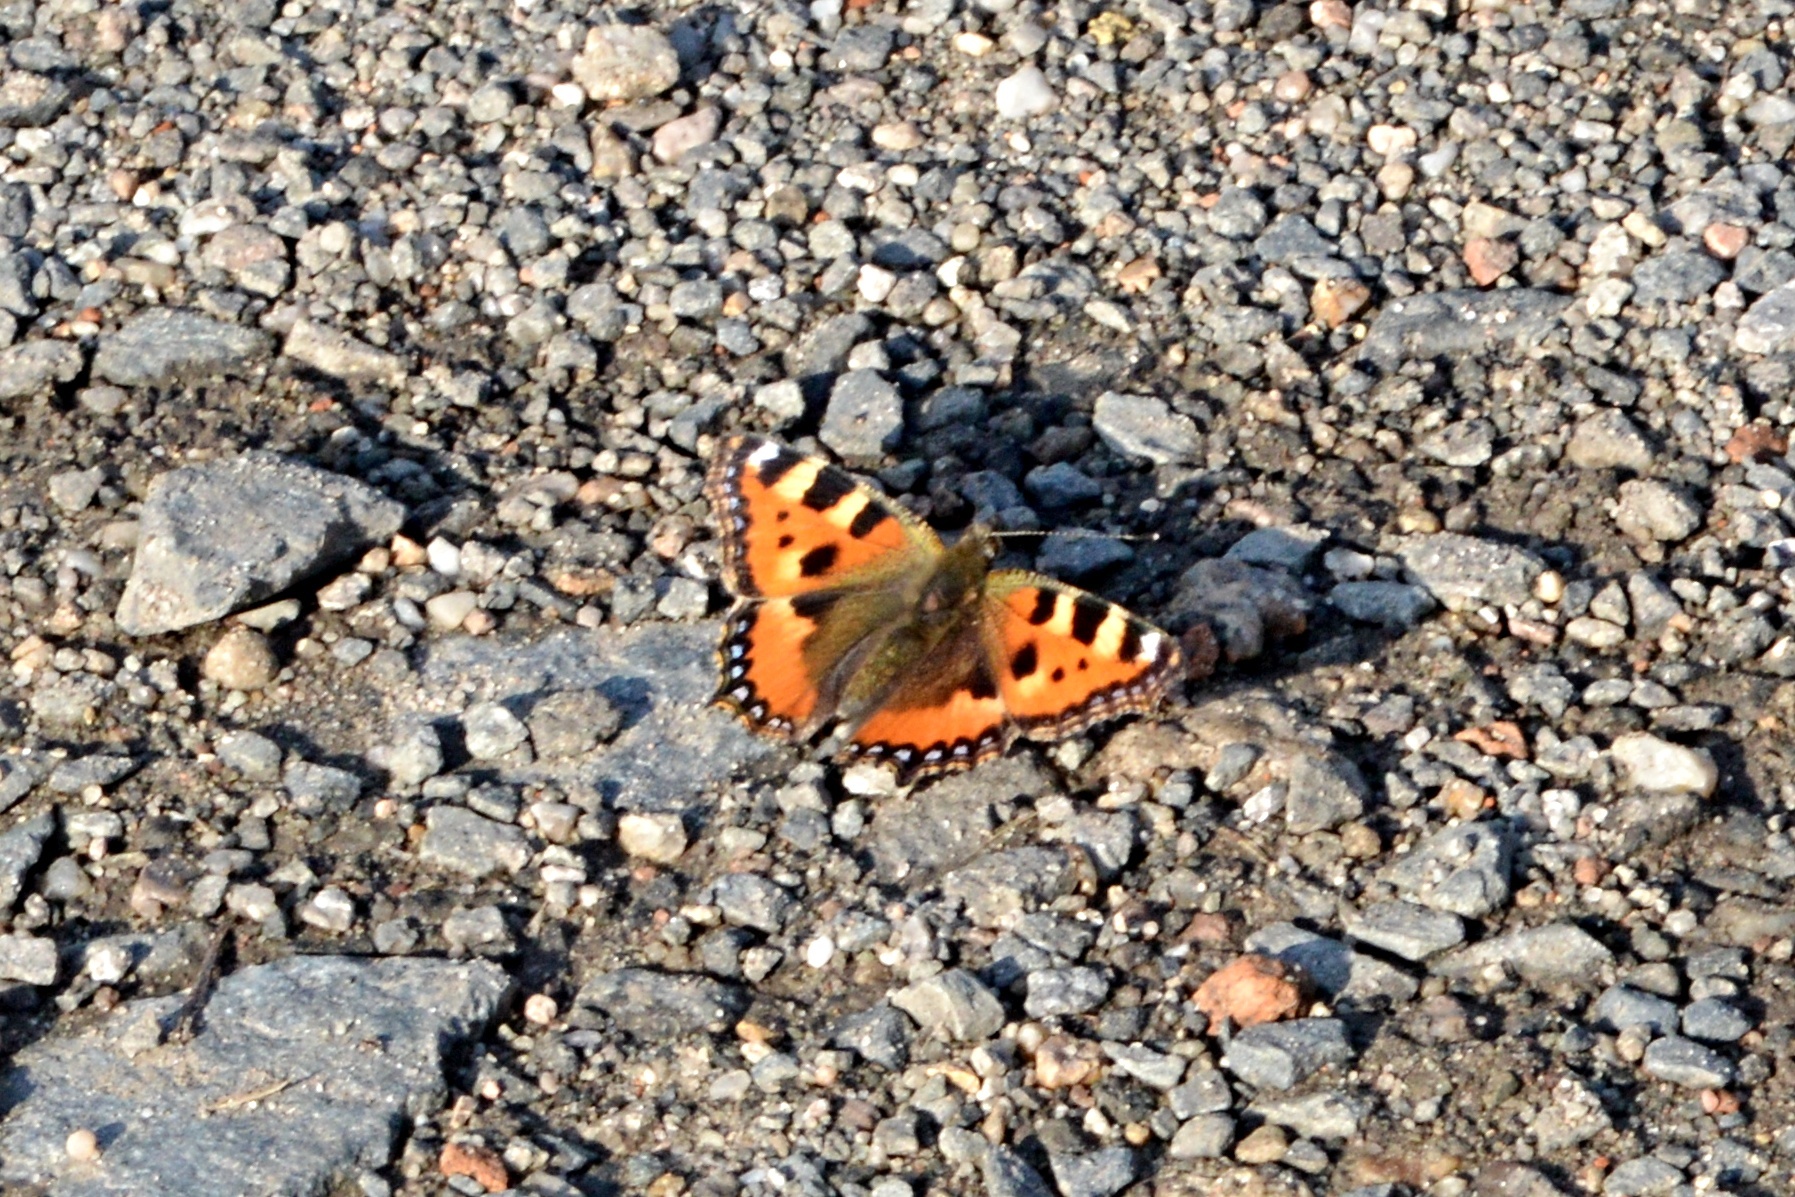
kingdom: Animalia
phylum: Arthropoda
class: Insecta
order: Lepidoptera
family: Nymphalidae
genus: Aglais
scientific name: Aglais urticae
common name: Small tortoiseshell
